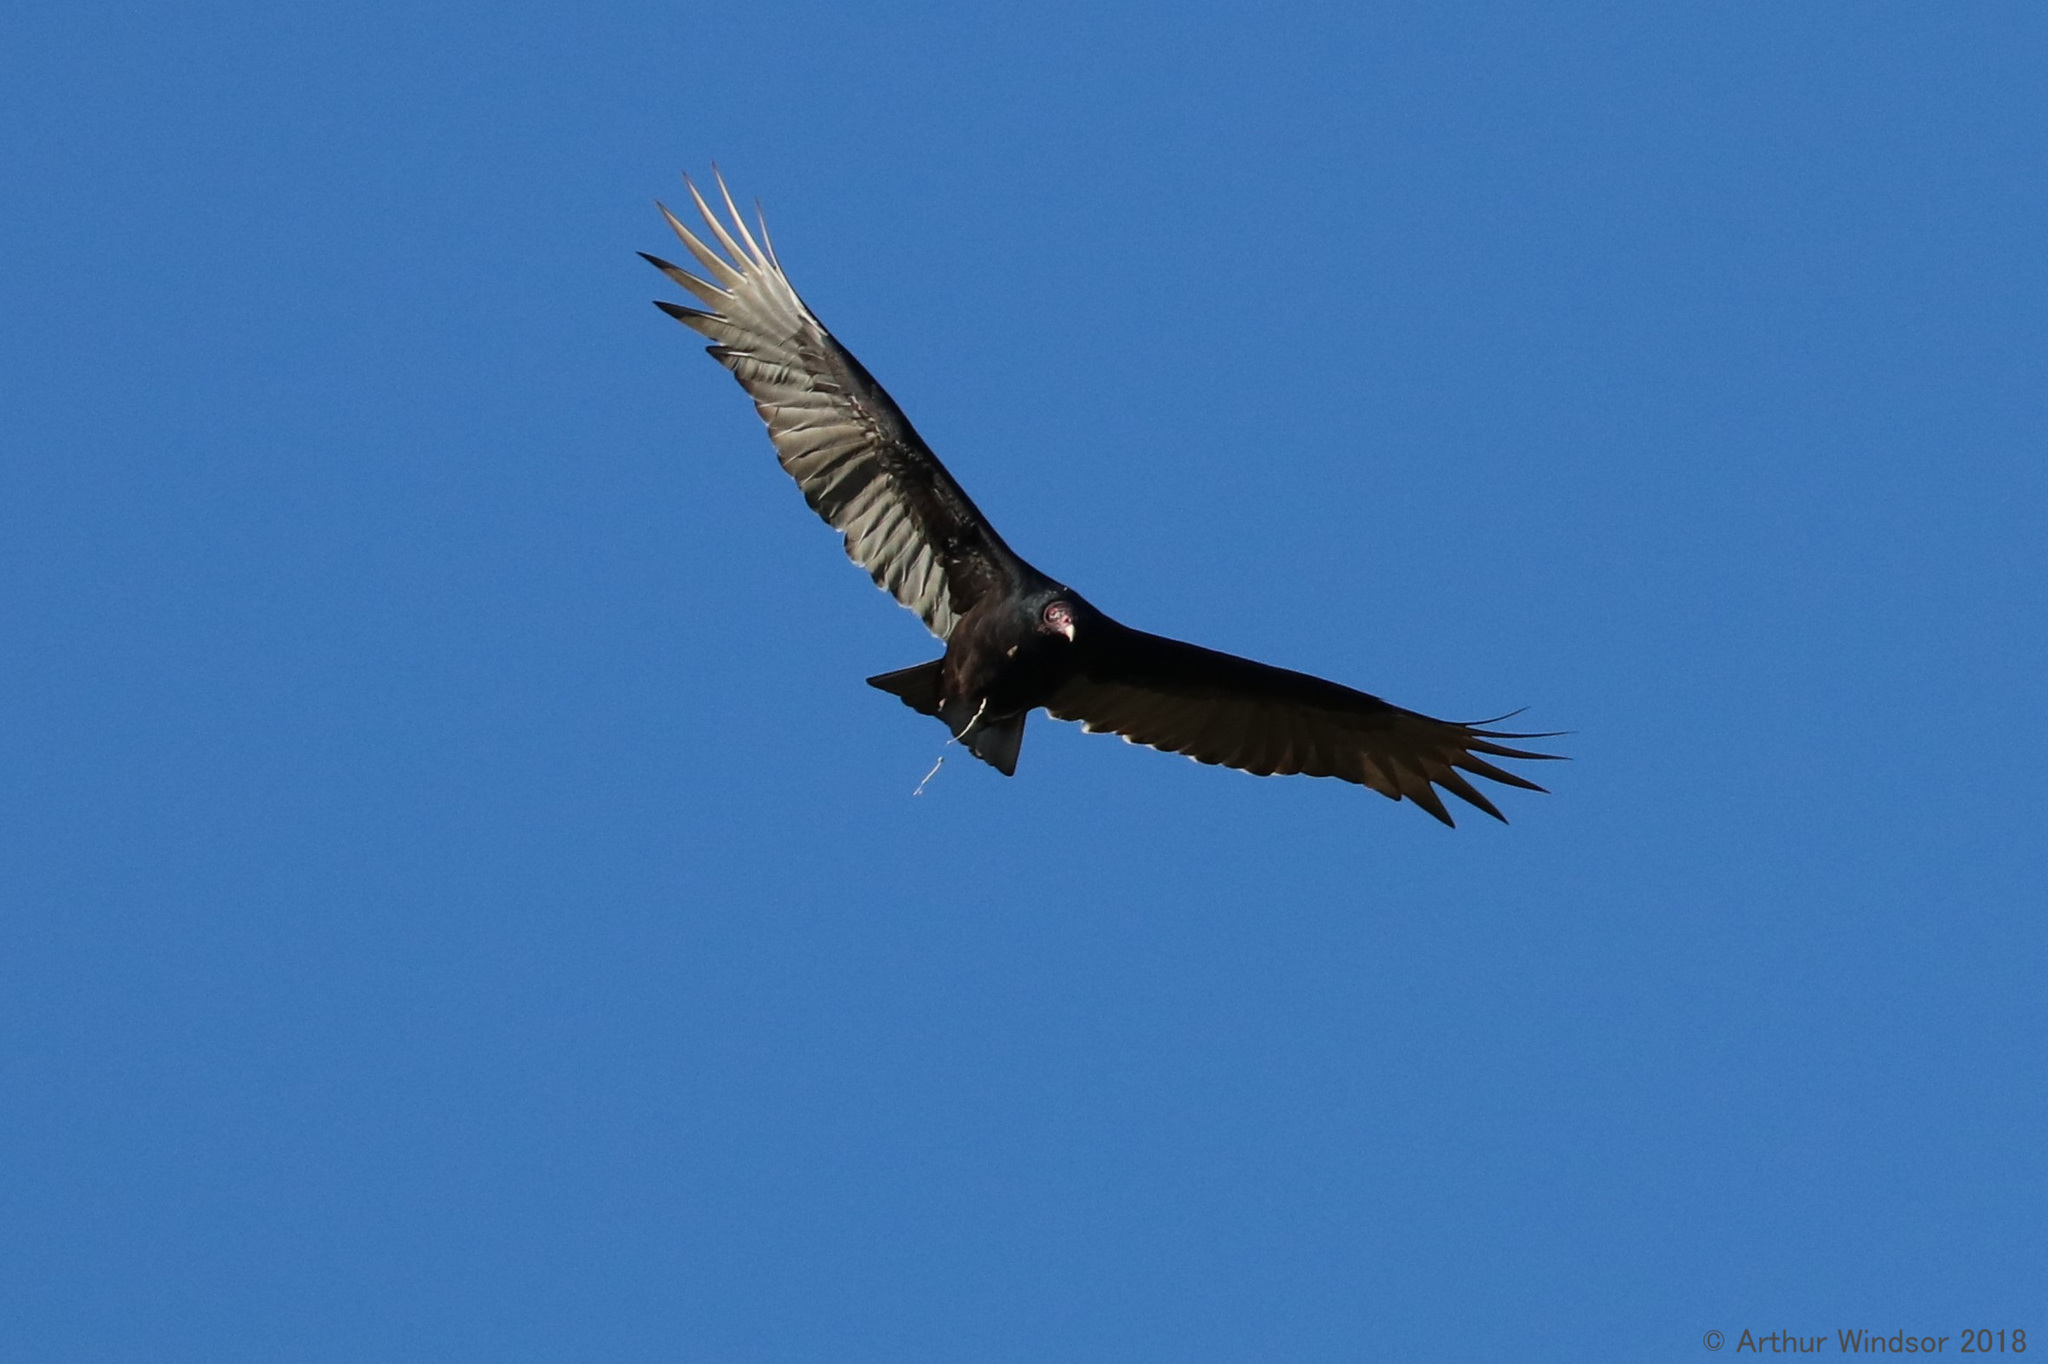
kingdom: Animalia
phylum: Chordata
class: Aves
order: Accipitriformes
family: Cathartidae
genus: Cathartes
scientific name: Cathartes aura
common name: Turkey vulture
